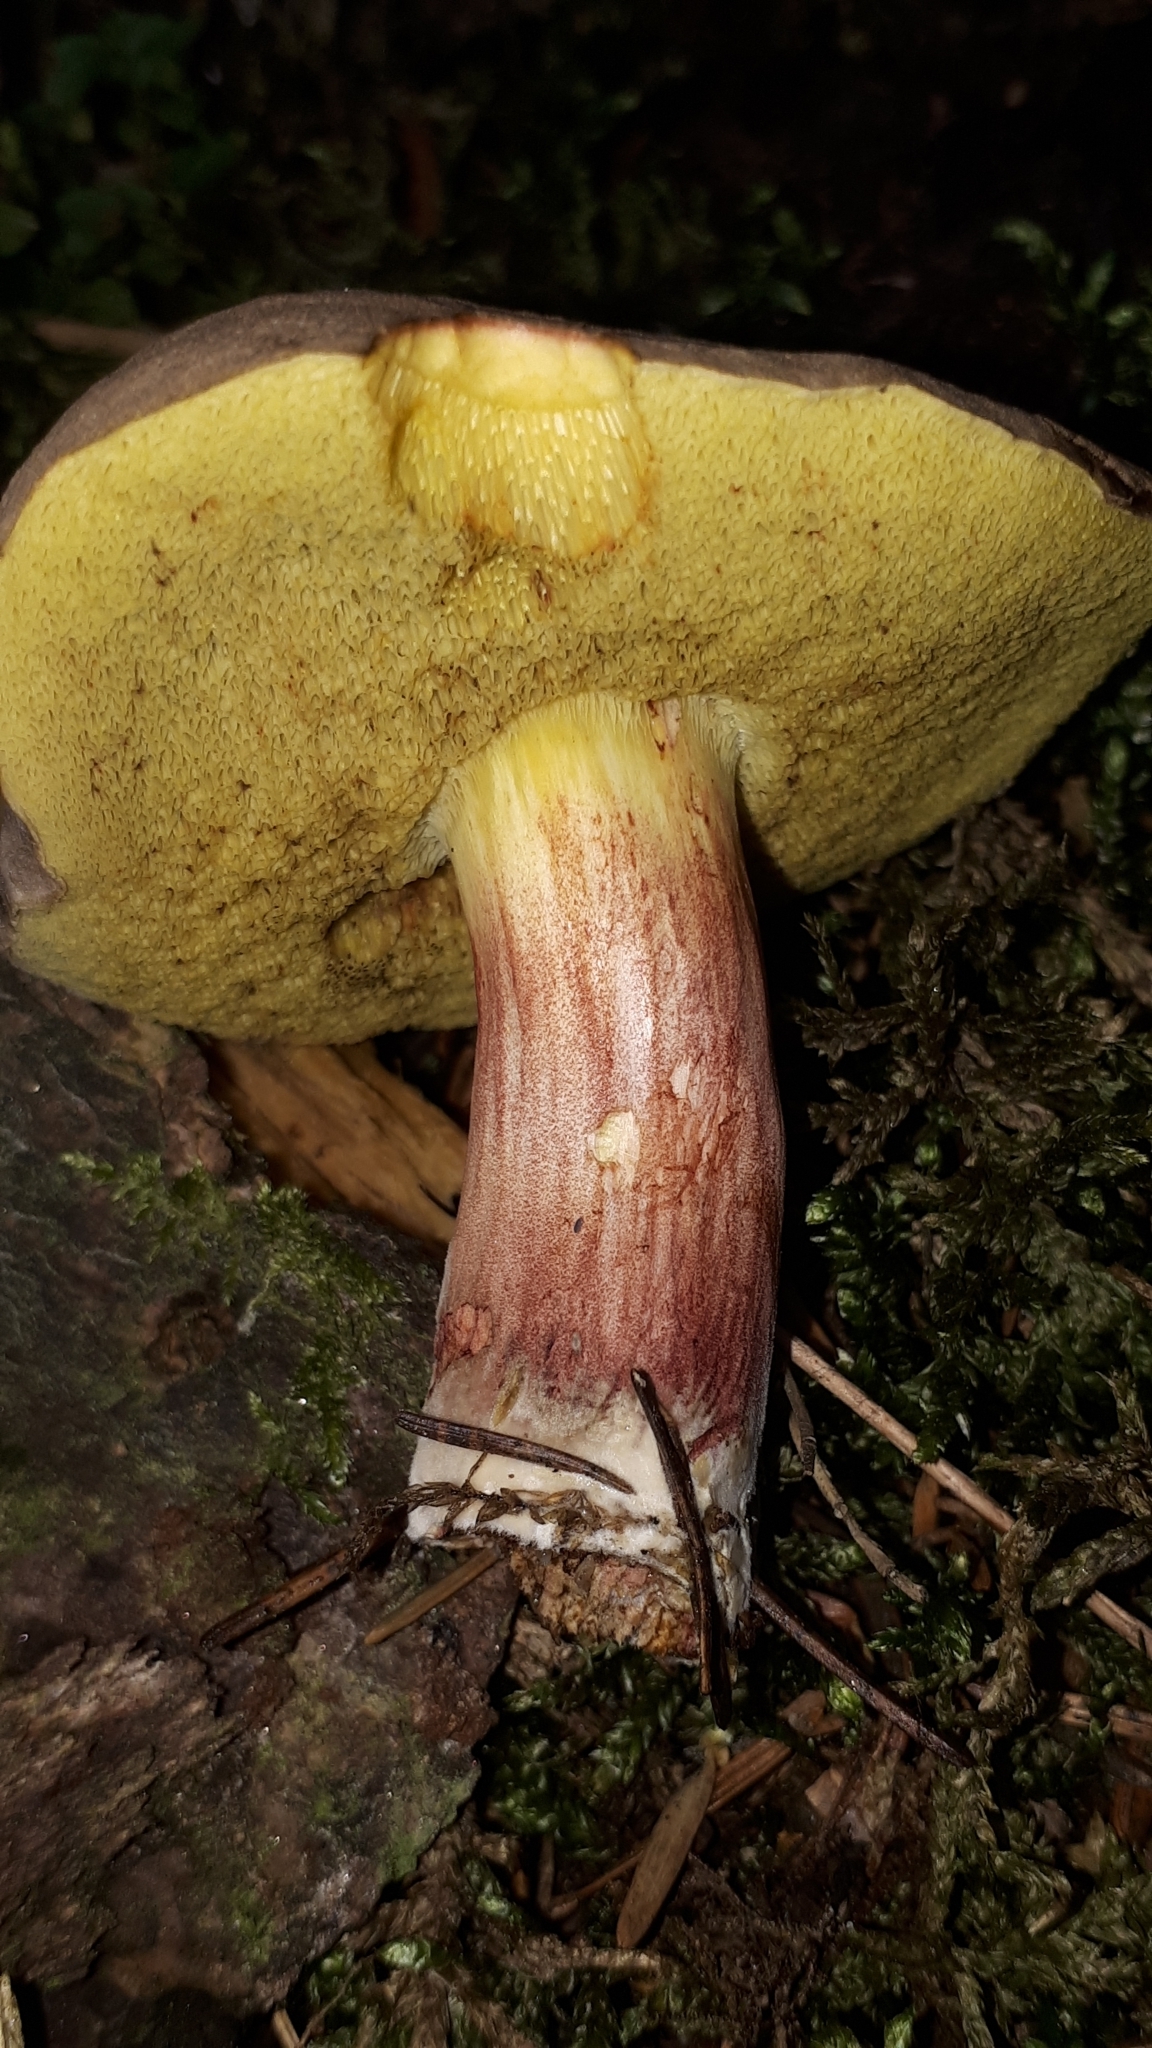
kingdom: Fungi
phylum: Basidiomycota
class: Agaricomycetes
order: Boletales
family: Boletaceae
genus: Xerocomellus
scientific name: Xerocomellus chrysenteron
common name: Red-cracking bolete
